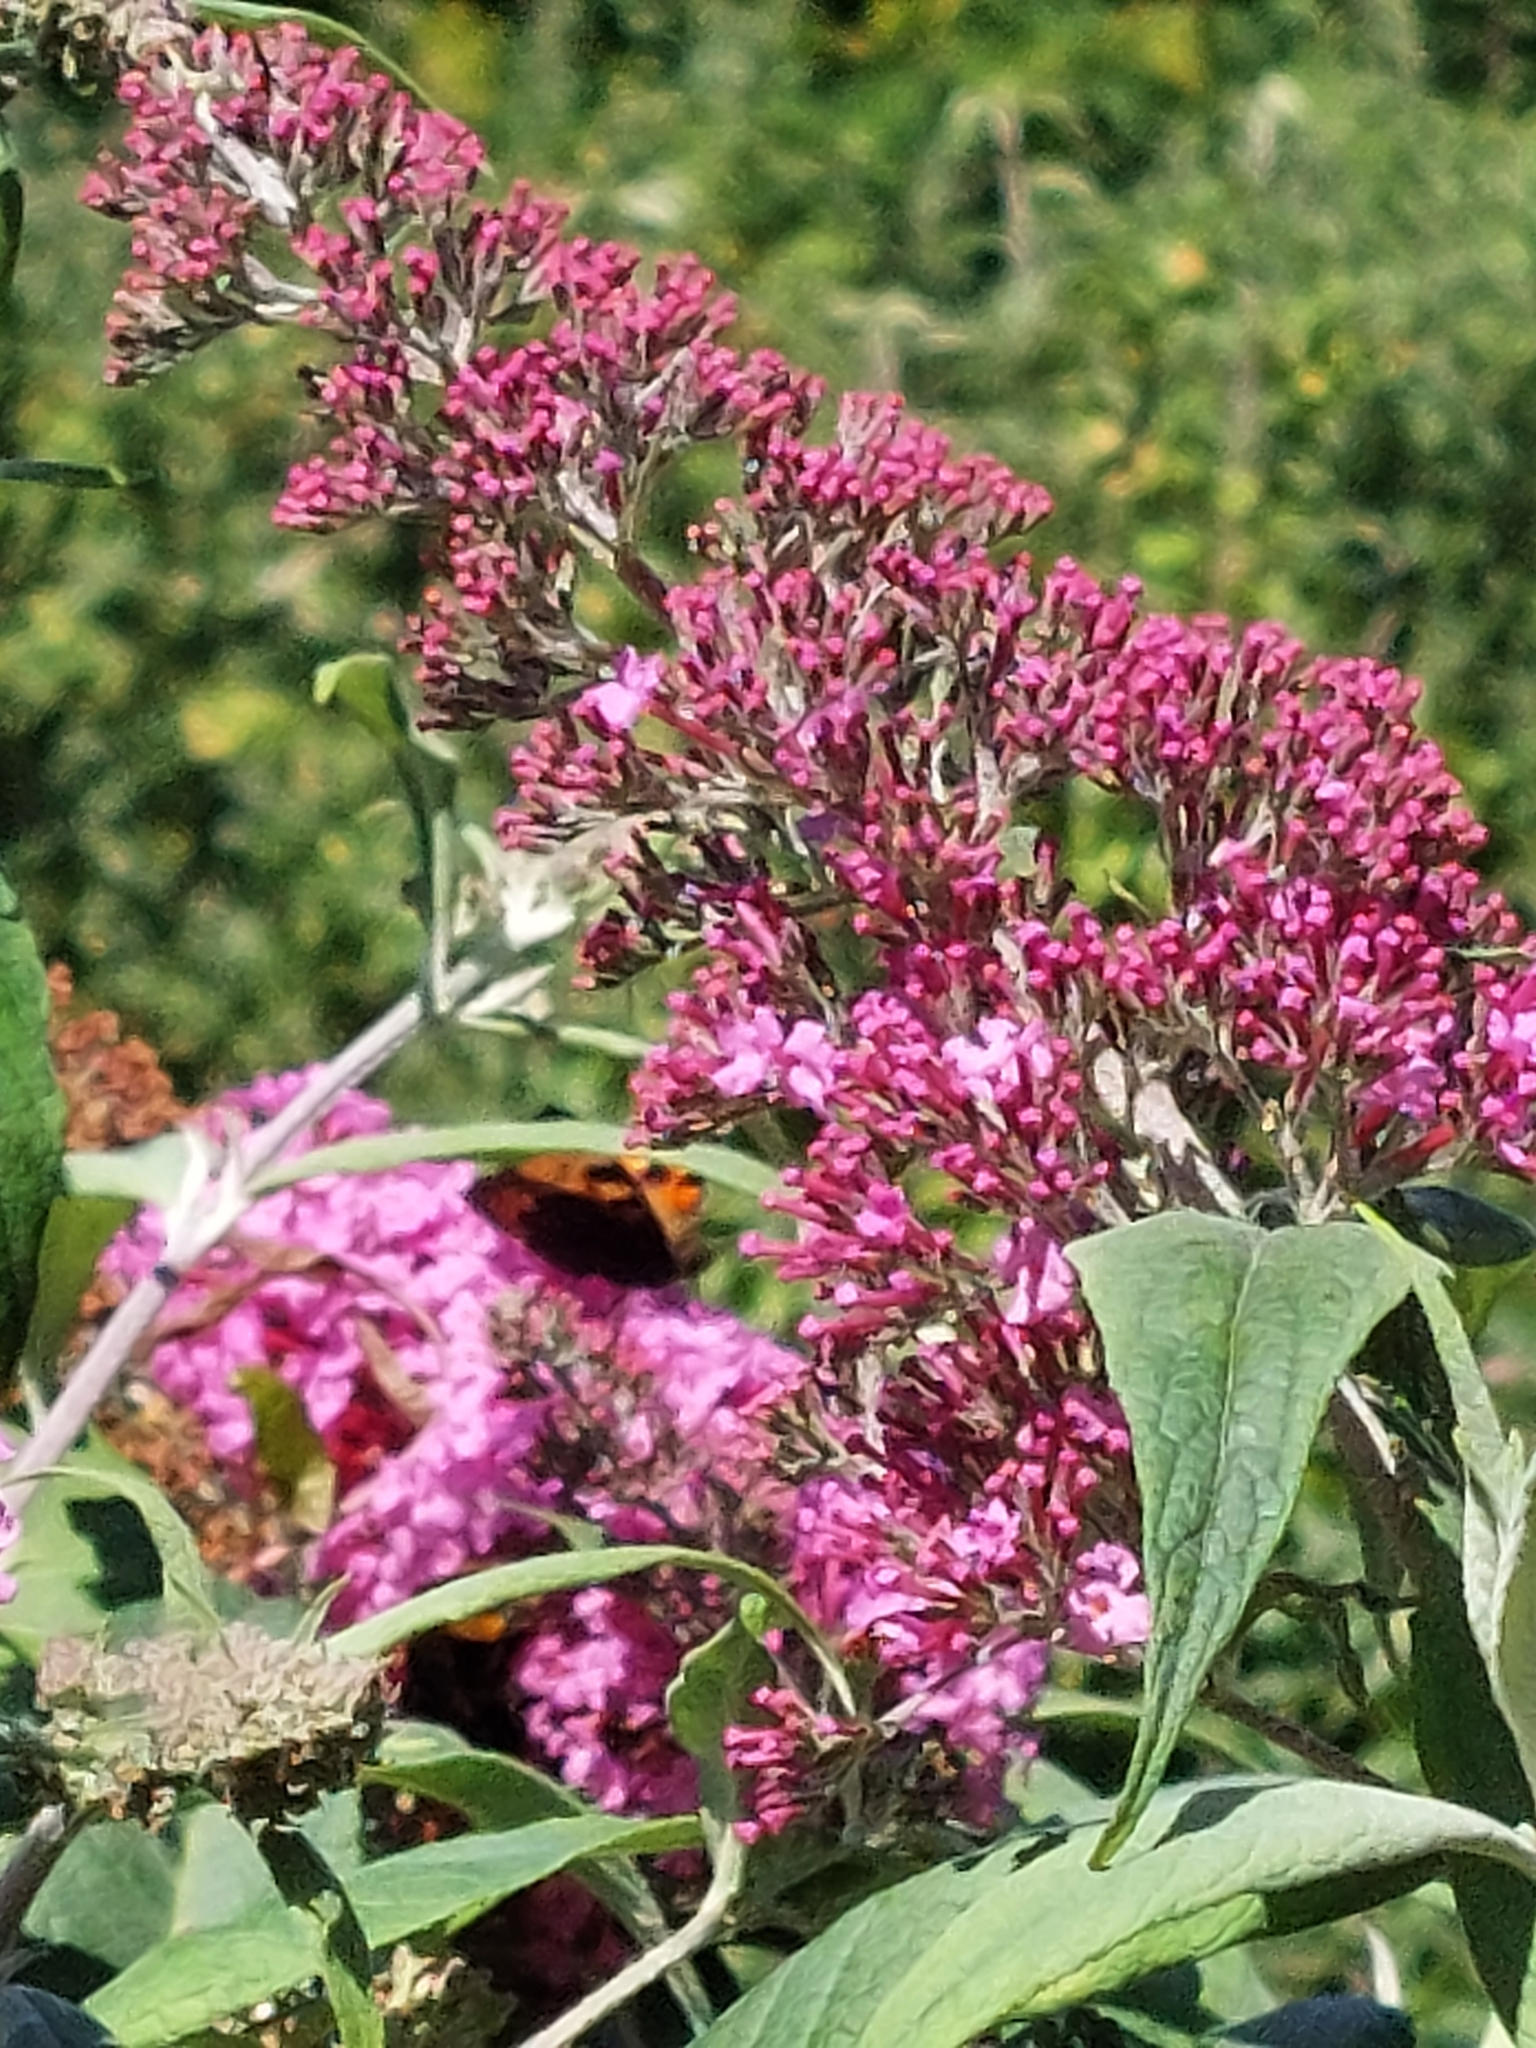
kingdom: Animalia
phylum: Arthropoda
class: Insecta
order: Lepidoptera
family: Nymphalidae
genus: Aglais
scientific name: Aglais urticae
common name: Small tortoiseshell
